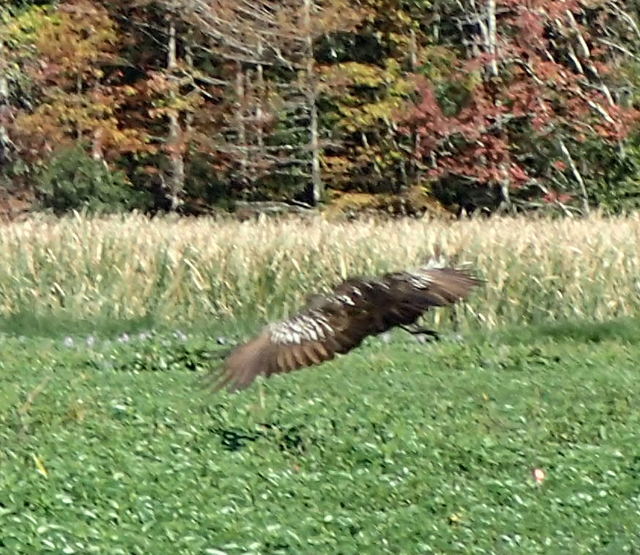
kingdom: Animalia
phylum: Chordata
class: Aves
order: Gruiformes
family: Aramidae
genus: Aramus
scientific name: Aramus guarauna
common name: Limpkin
